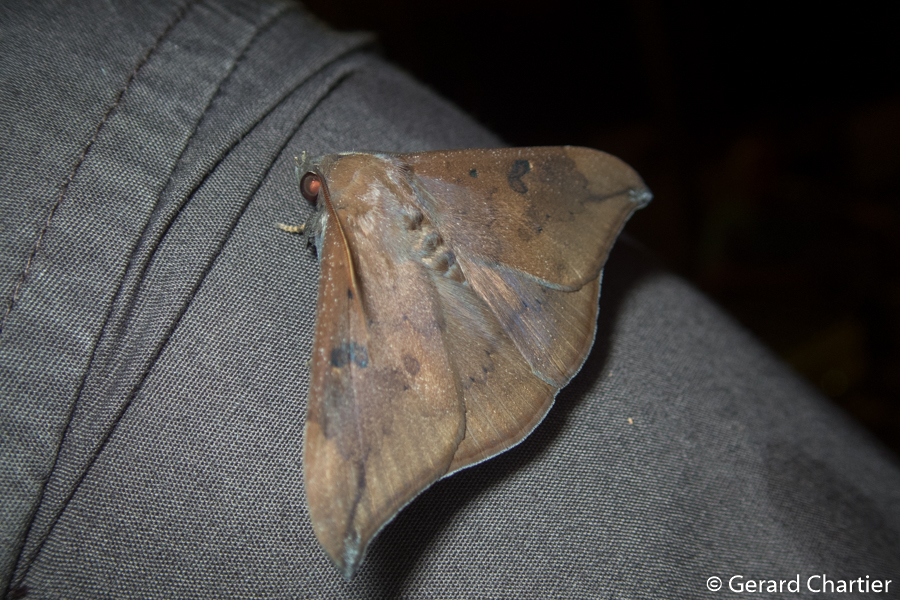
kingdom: Animalia
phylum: Arthropoda
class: Insecta
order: Lepidoptera
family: Erebidae
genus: Platyja
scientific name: Platyja umminia
